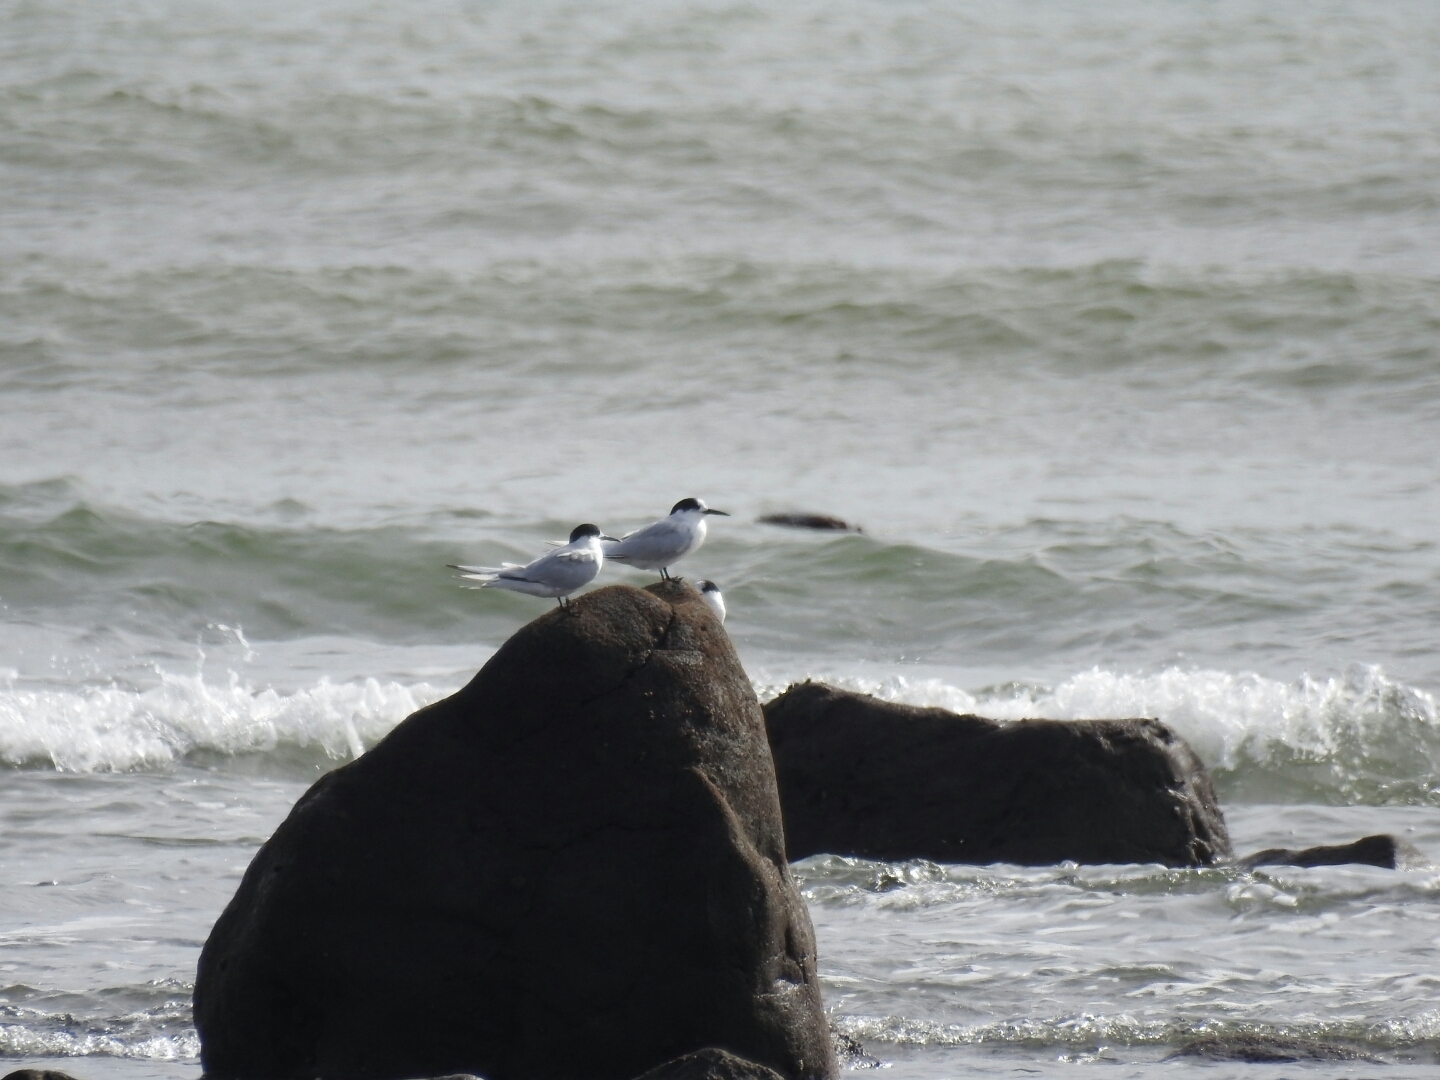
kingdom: Animalia
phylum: Chordata
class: Aves
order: Charadriiformes
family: Laridae
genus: Sterna
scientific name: Sterna striata
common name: White-fronted tern
